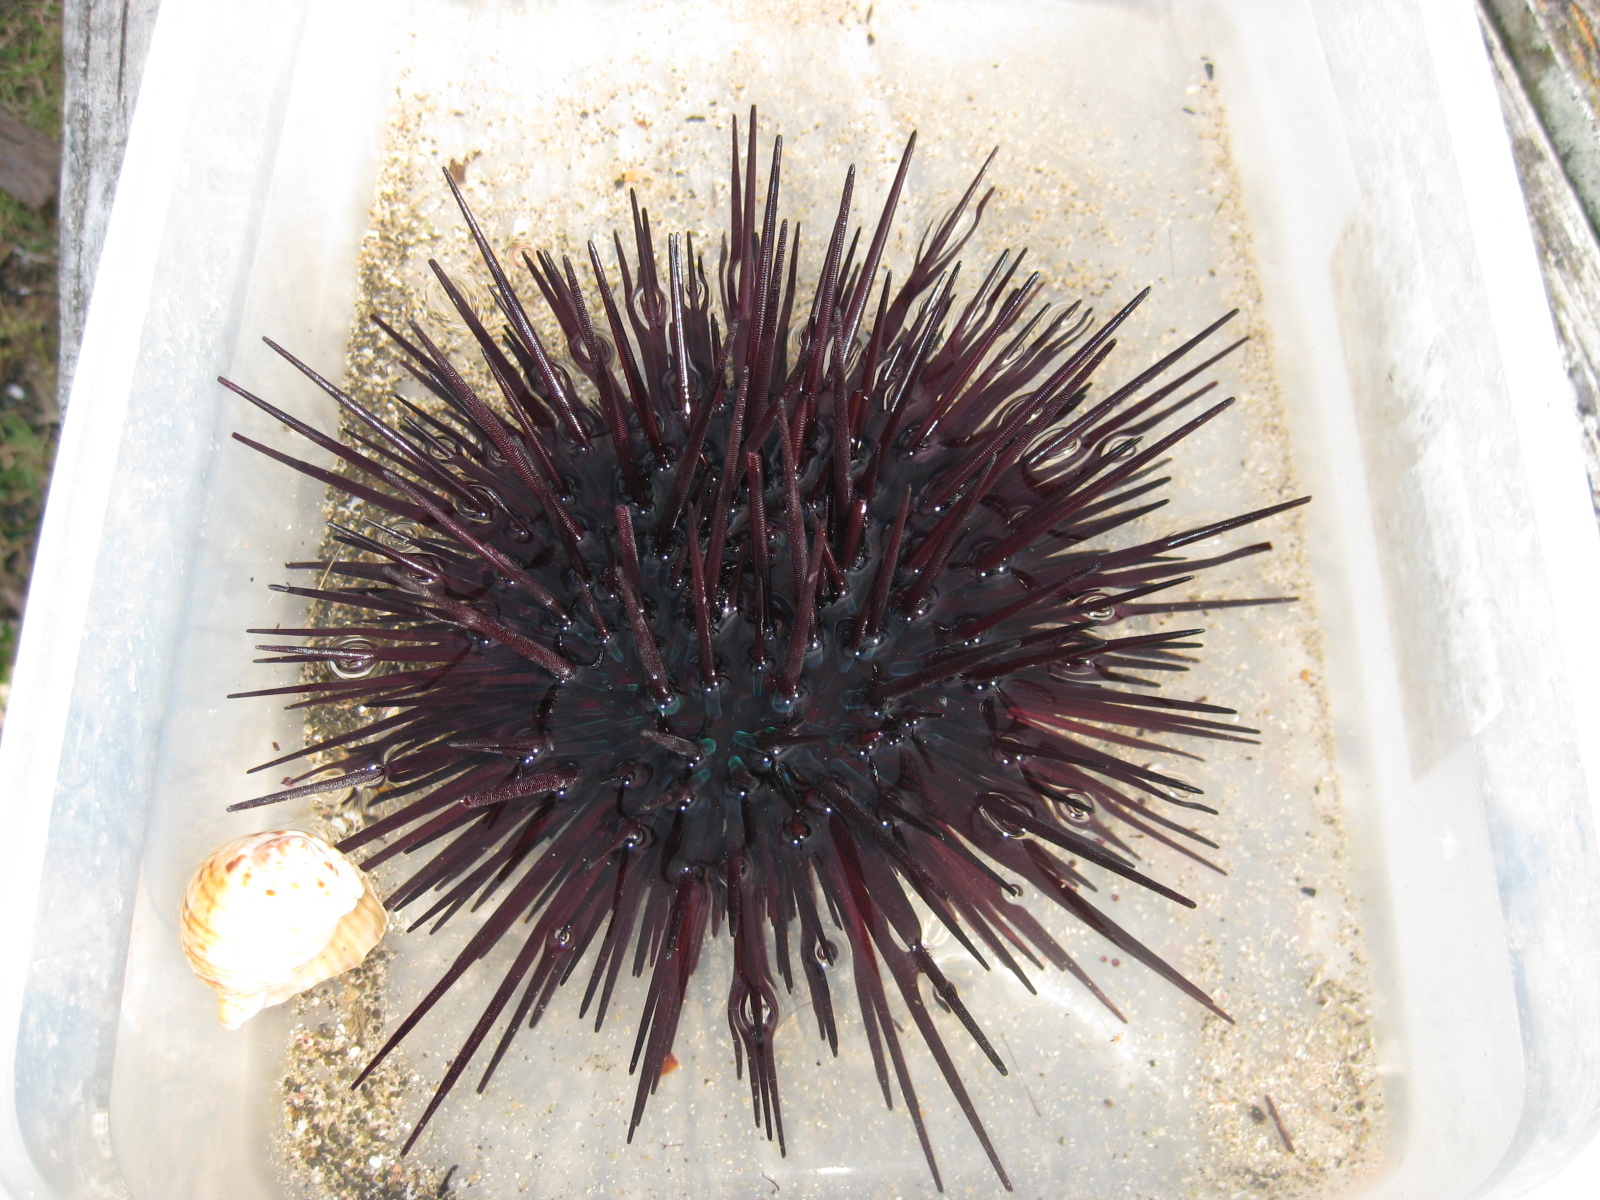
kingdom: Animalia
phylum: Echinodermata
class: Echinoidea
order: Diadematoida
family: Diadematidae
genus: Centrostephanus
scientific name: Centrostephanus rodgersii
